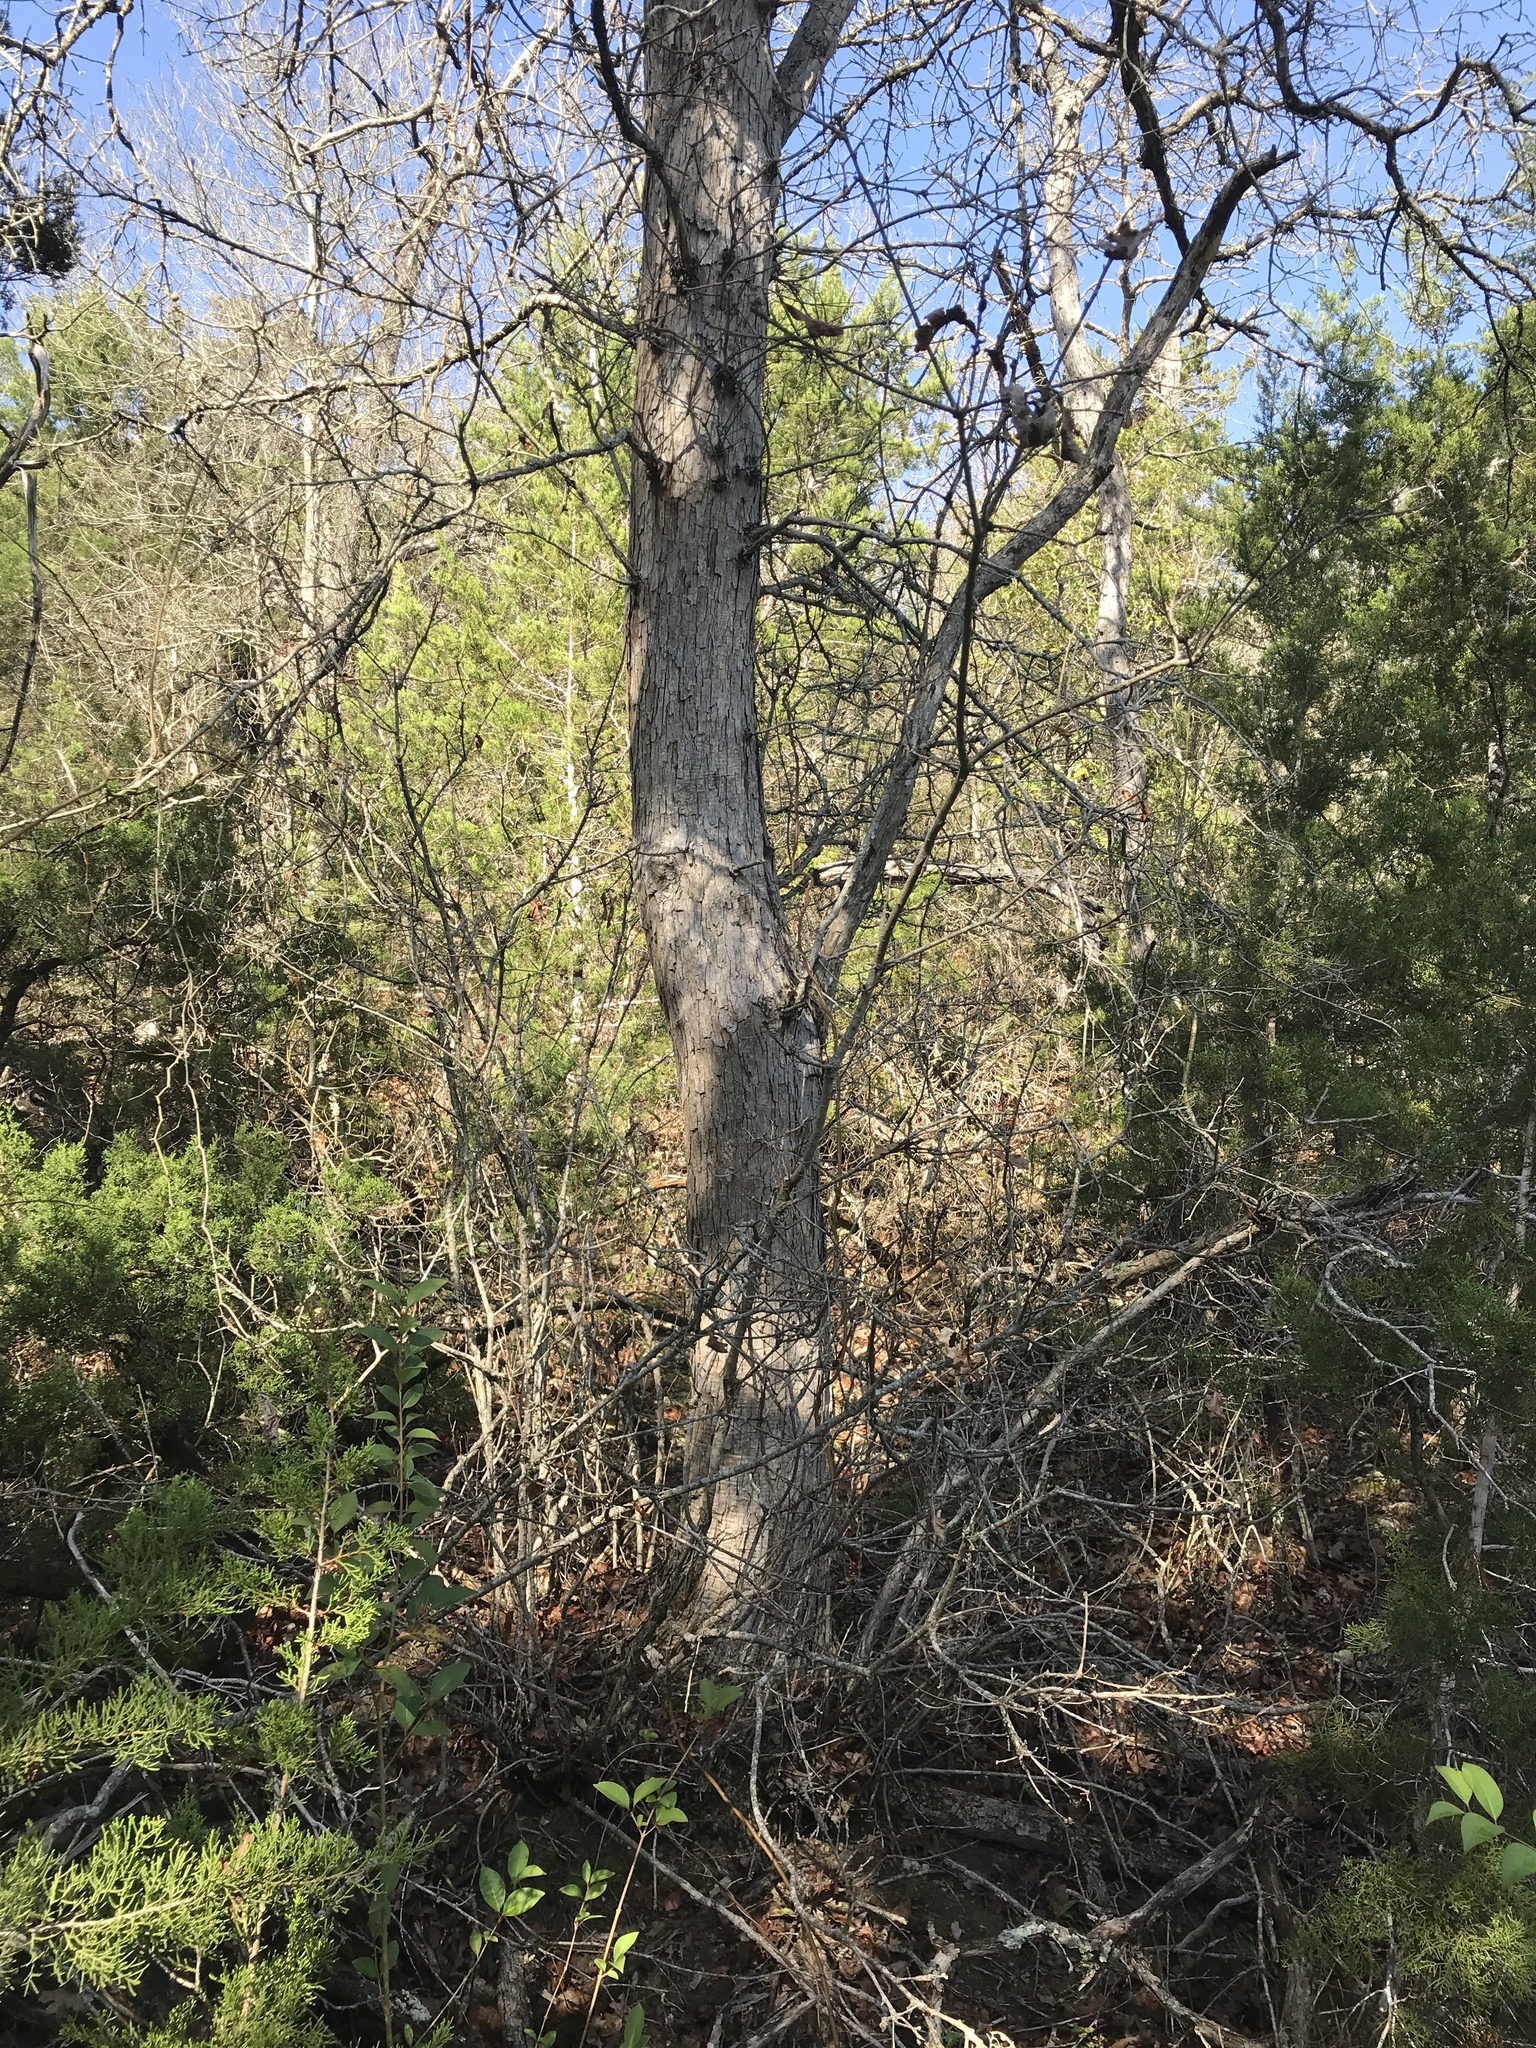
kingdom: Plantae
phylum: Tracheophyta
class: Magnoliopsida
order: Fagales
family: Fagaceae
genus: Quercus
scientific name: Quercus sinuata
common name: Durand oak
